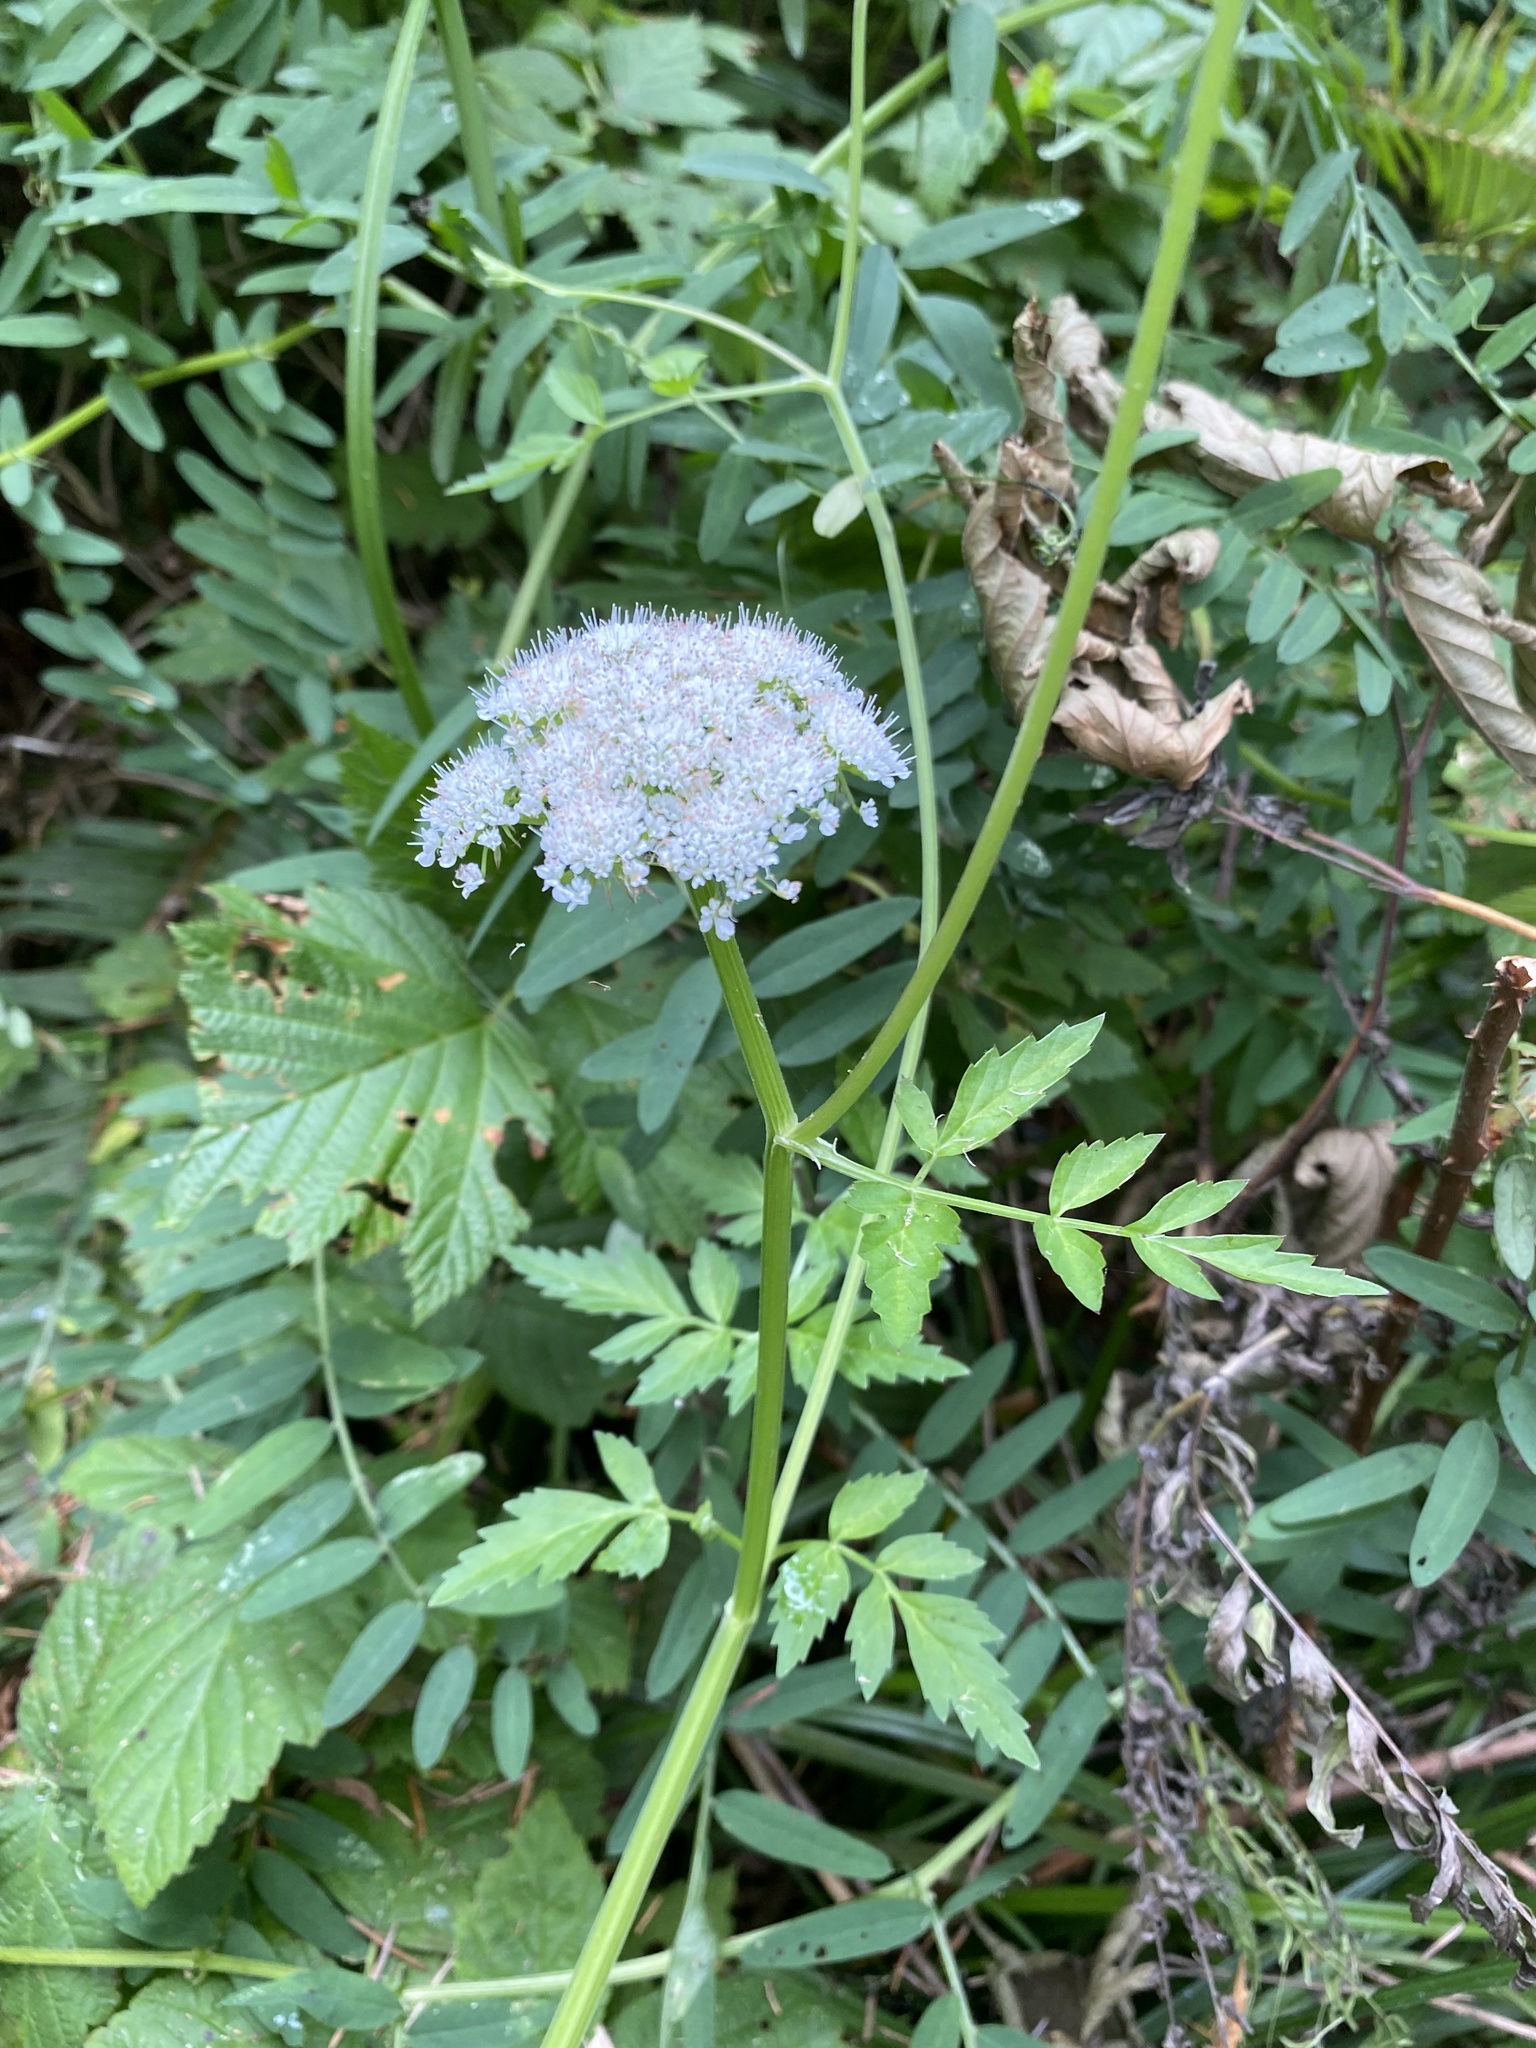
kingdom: Plantae
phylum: Tracheophyta
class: Magnoliopsida
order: Apiales
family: Apiaceae
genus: Oenanthe
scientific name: Oenanthe sarmentosa
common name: American water-parsley
